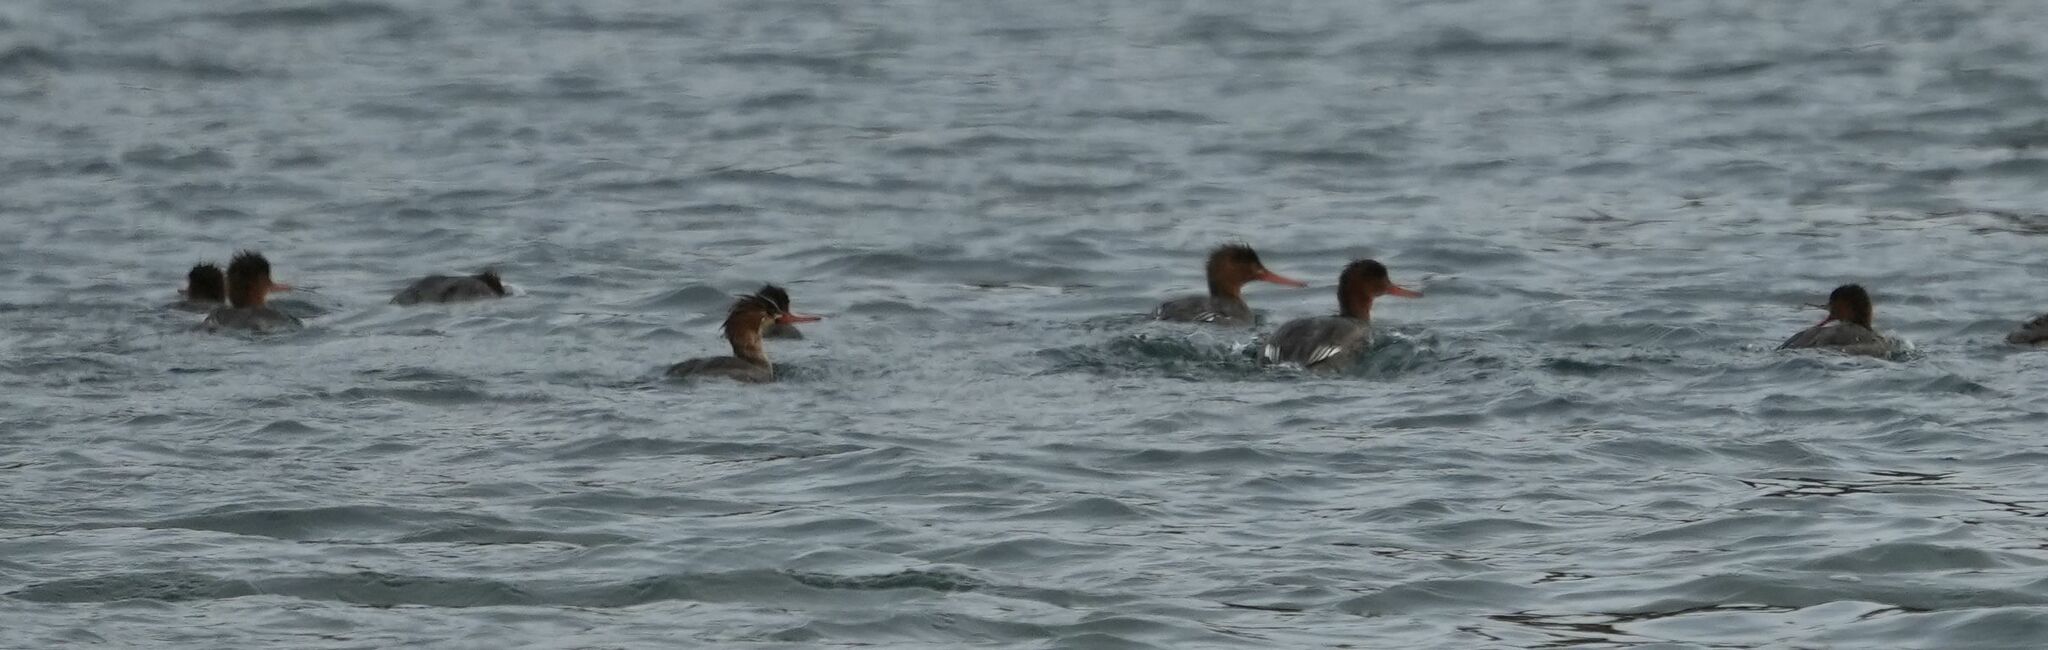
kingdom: Animalia
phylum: Chordata
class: Aves
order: Anseriformes
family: Anatidae
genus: Mergus
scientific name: Mergus serrator
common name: Red-breasted merganser
